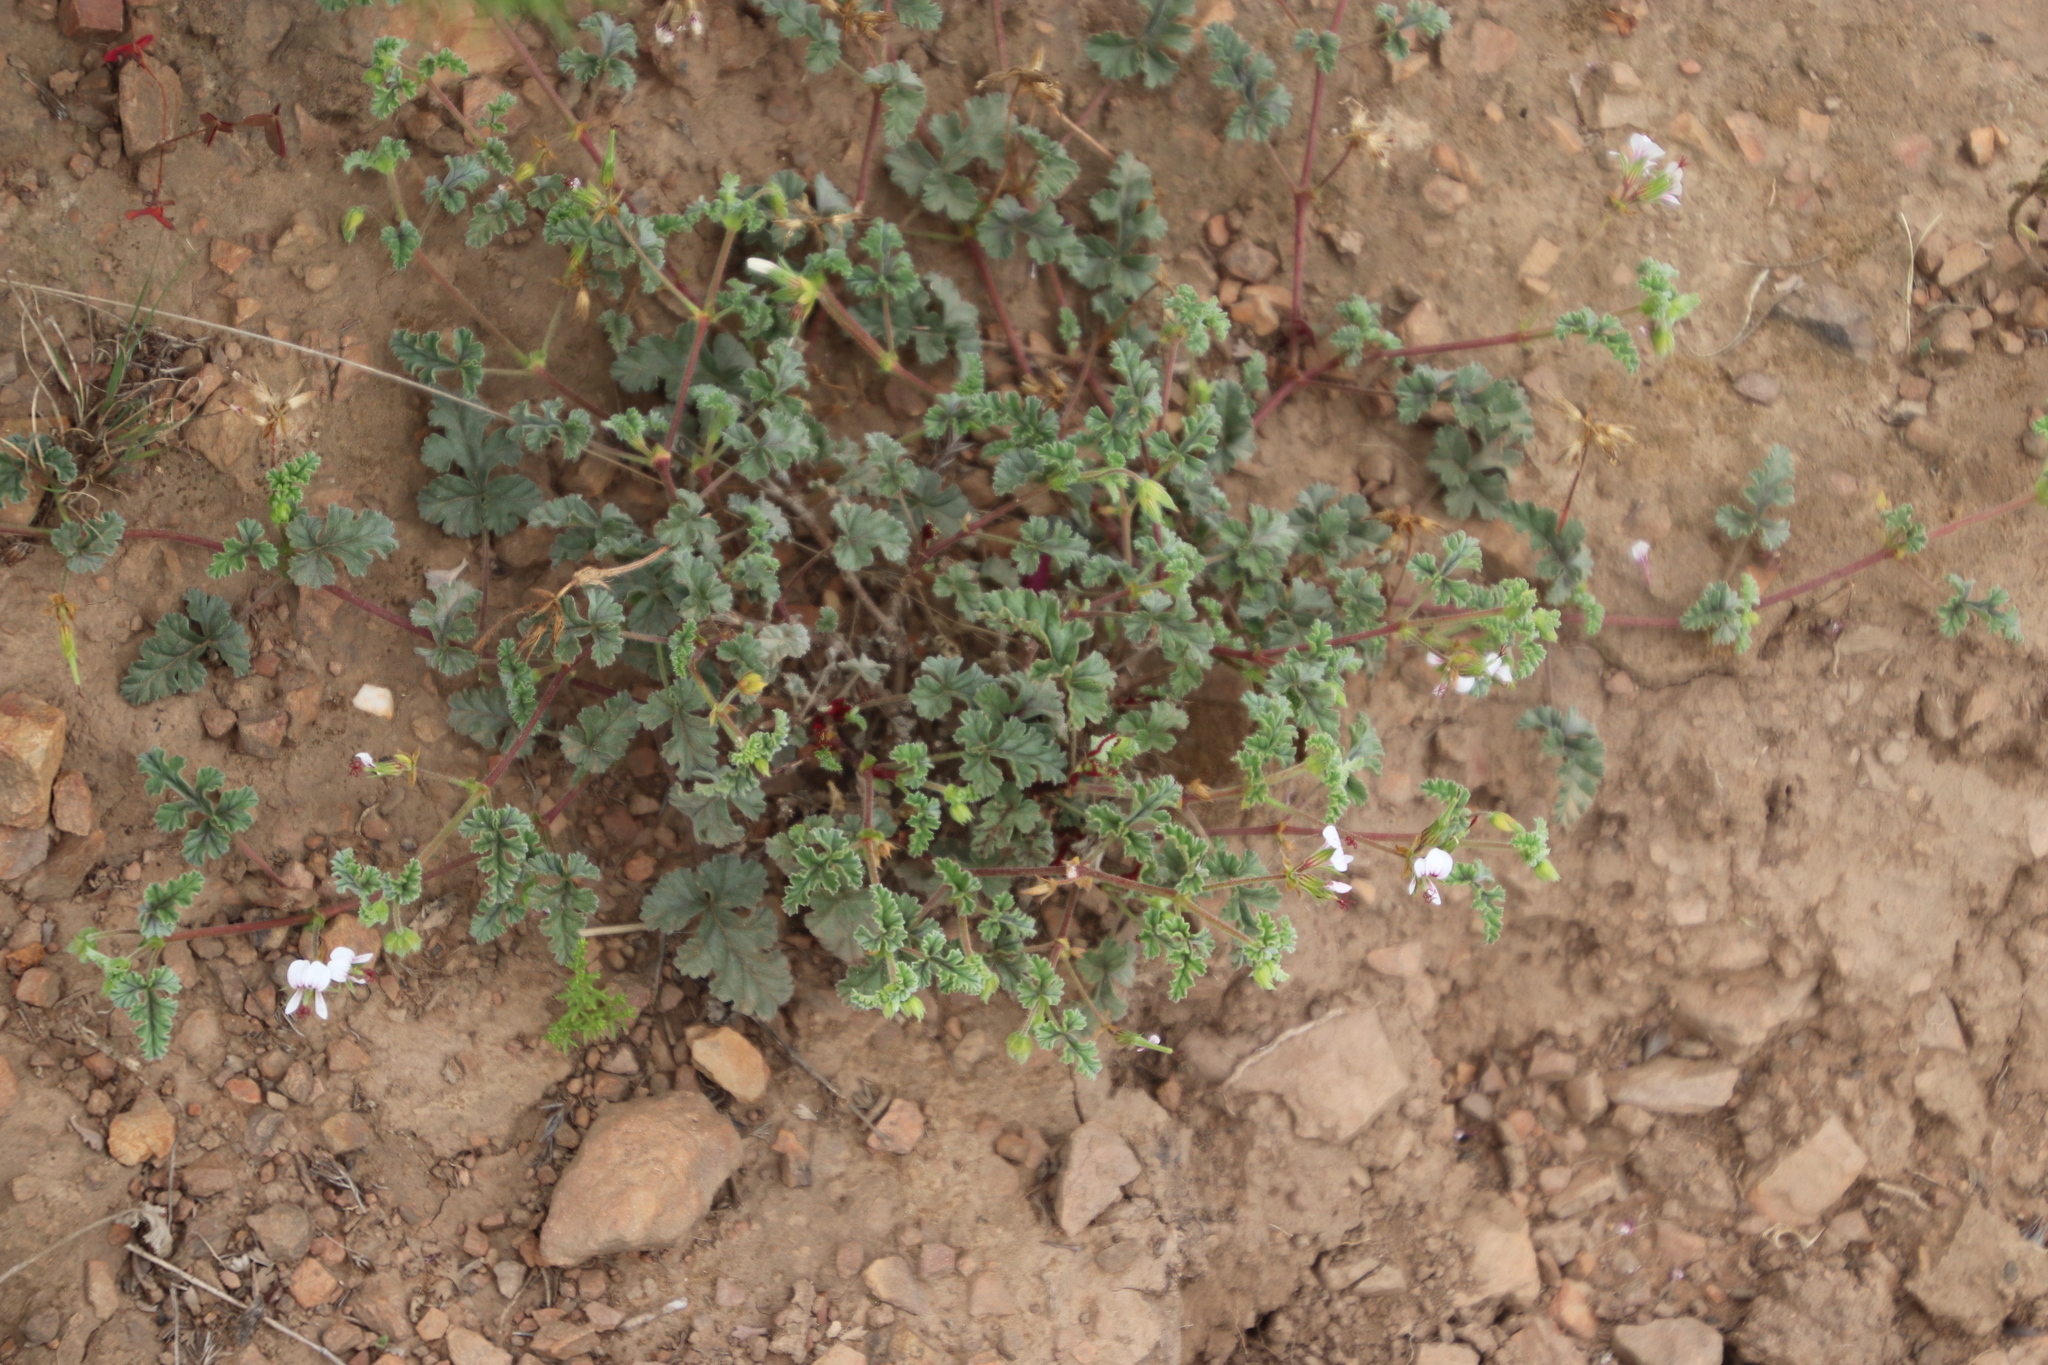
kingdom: Plantae
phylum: Tracheophyta
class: Magnoliopsida
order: Geraniales
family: Geraniaceae
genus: Pelargonium
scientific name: Pelargonium candicans
